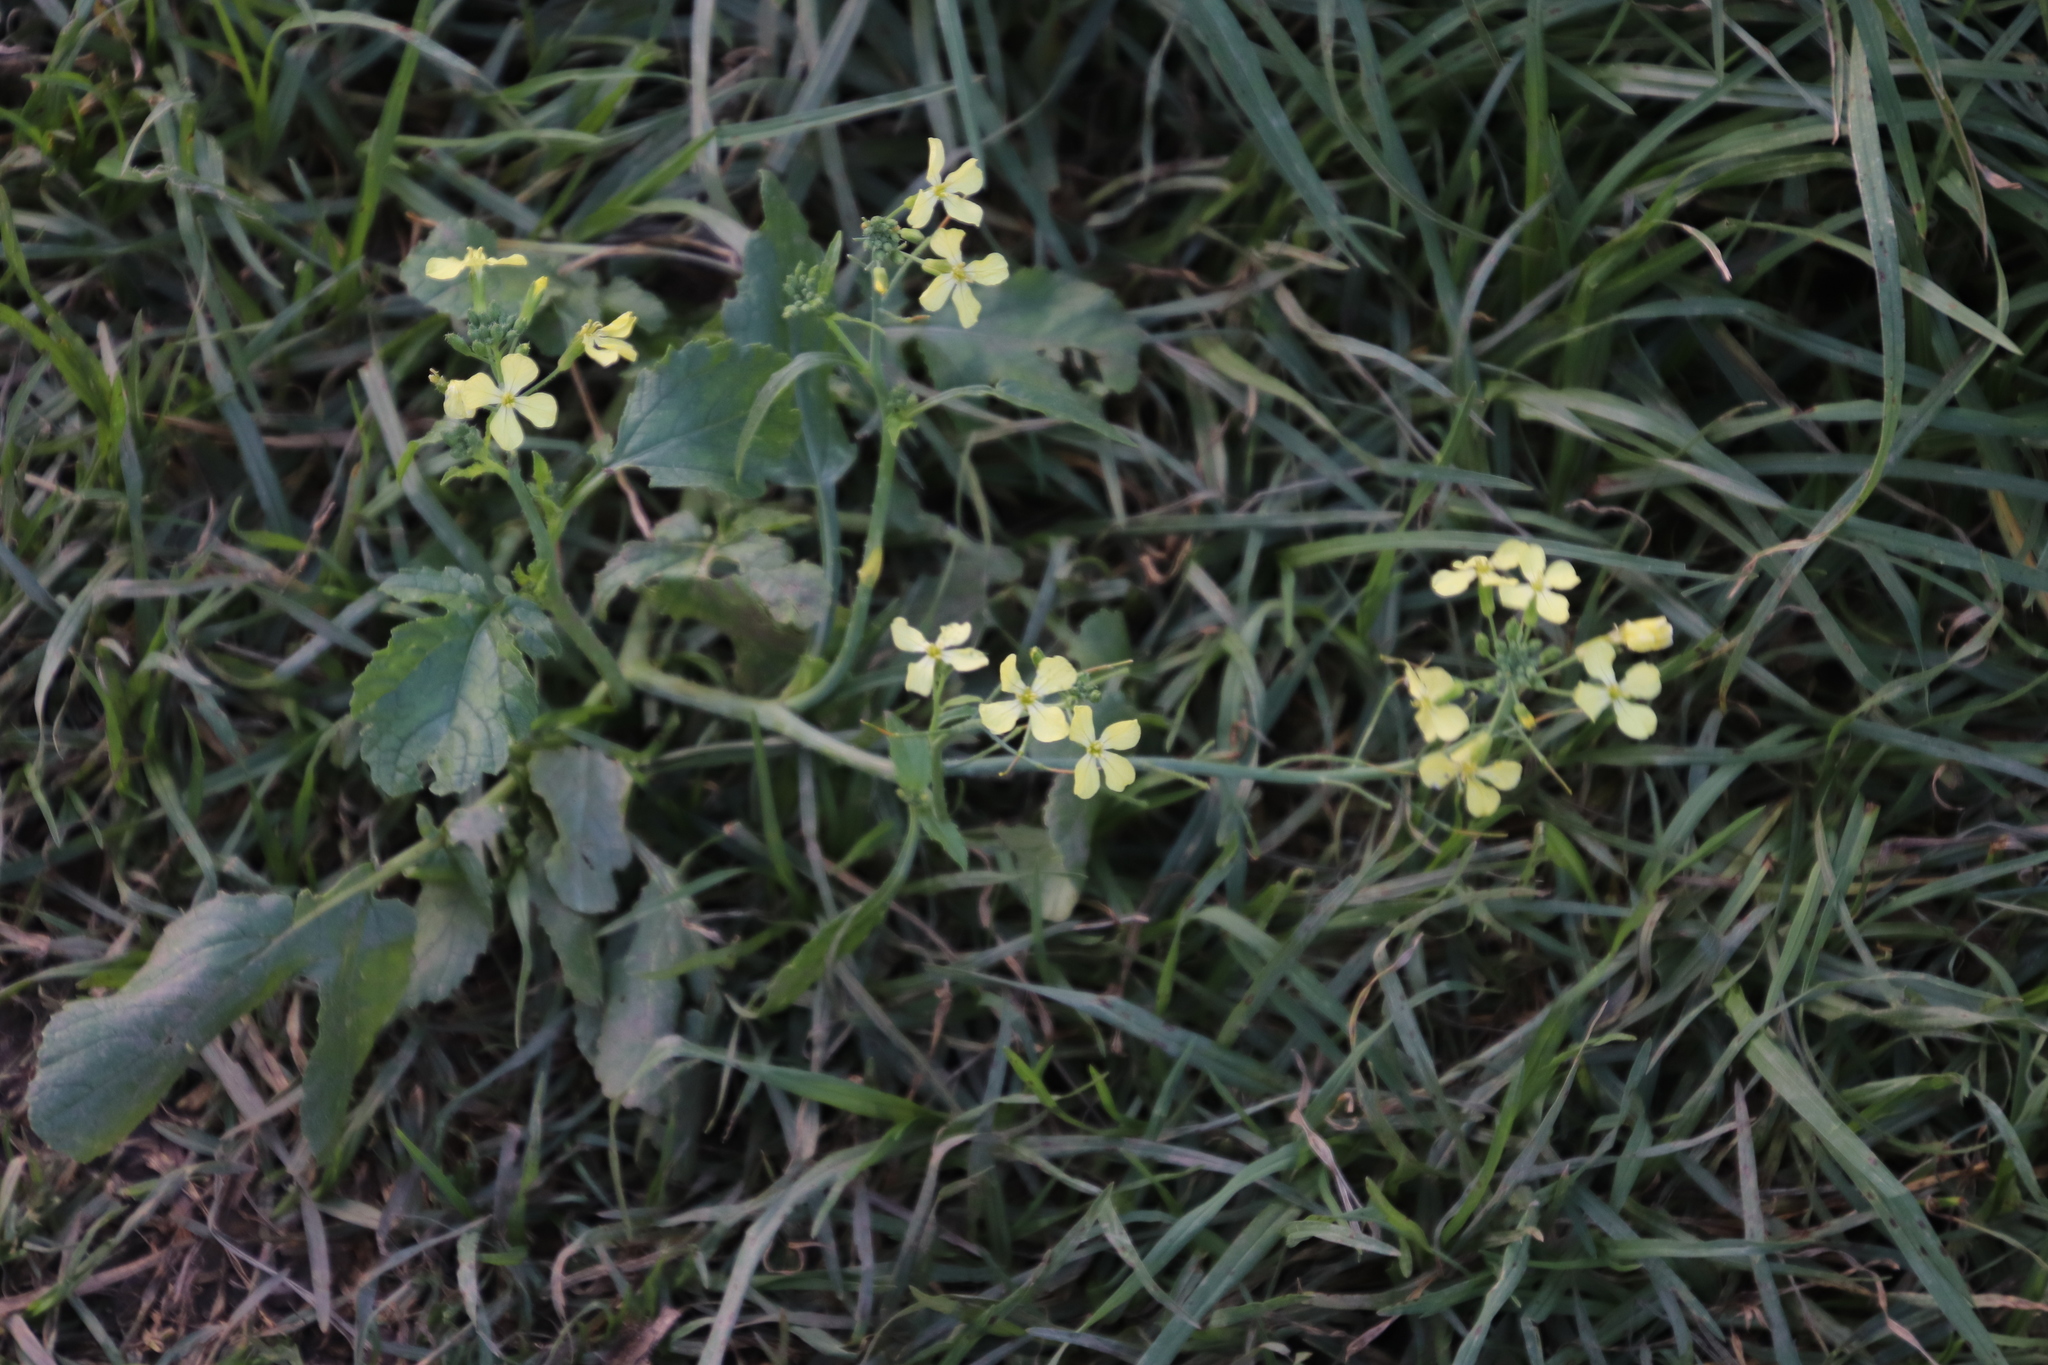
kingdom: Plantae
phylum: Tracheophyta
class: Magnoliopsida
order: Brassicales
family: Brassicaceae
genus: Raphanus
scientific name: Raphanus raphanistrum
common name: Wild radish
